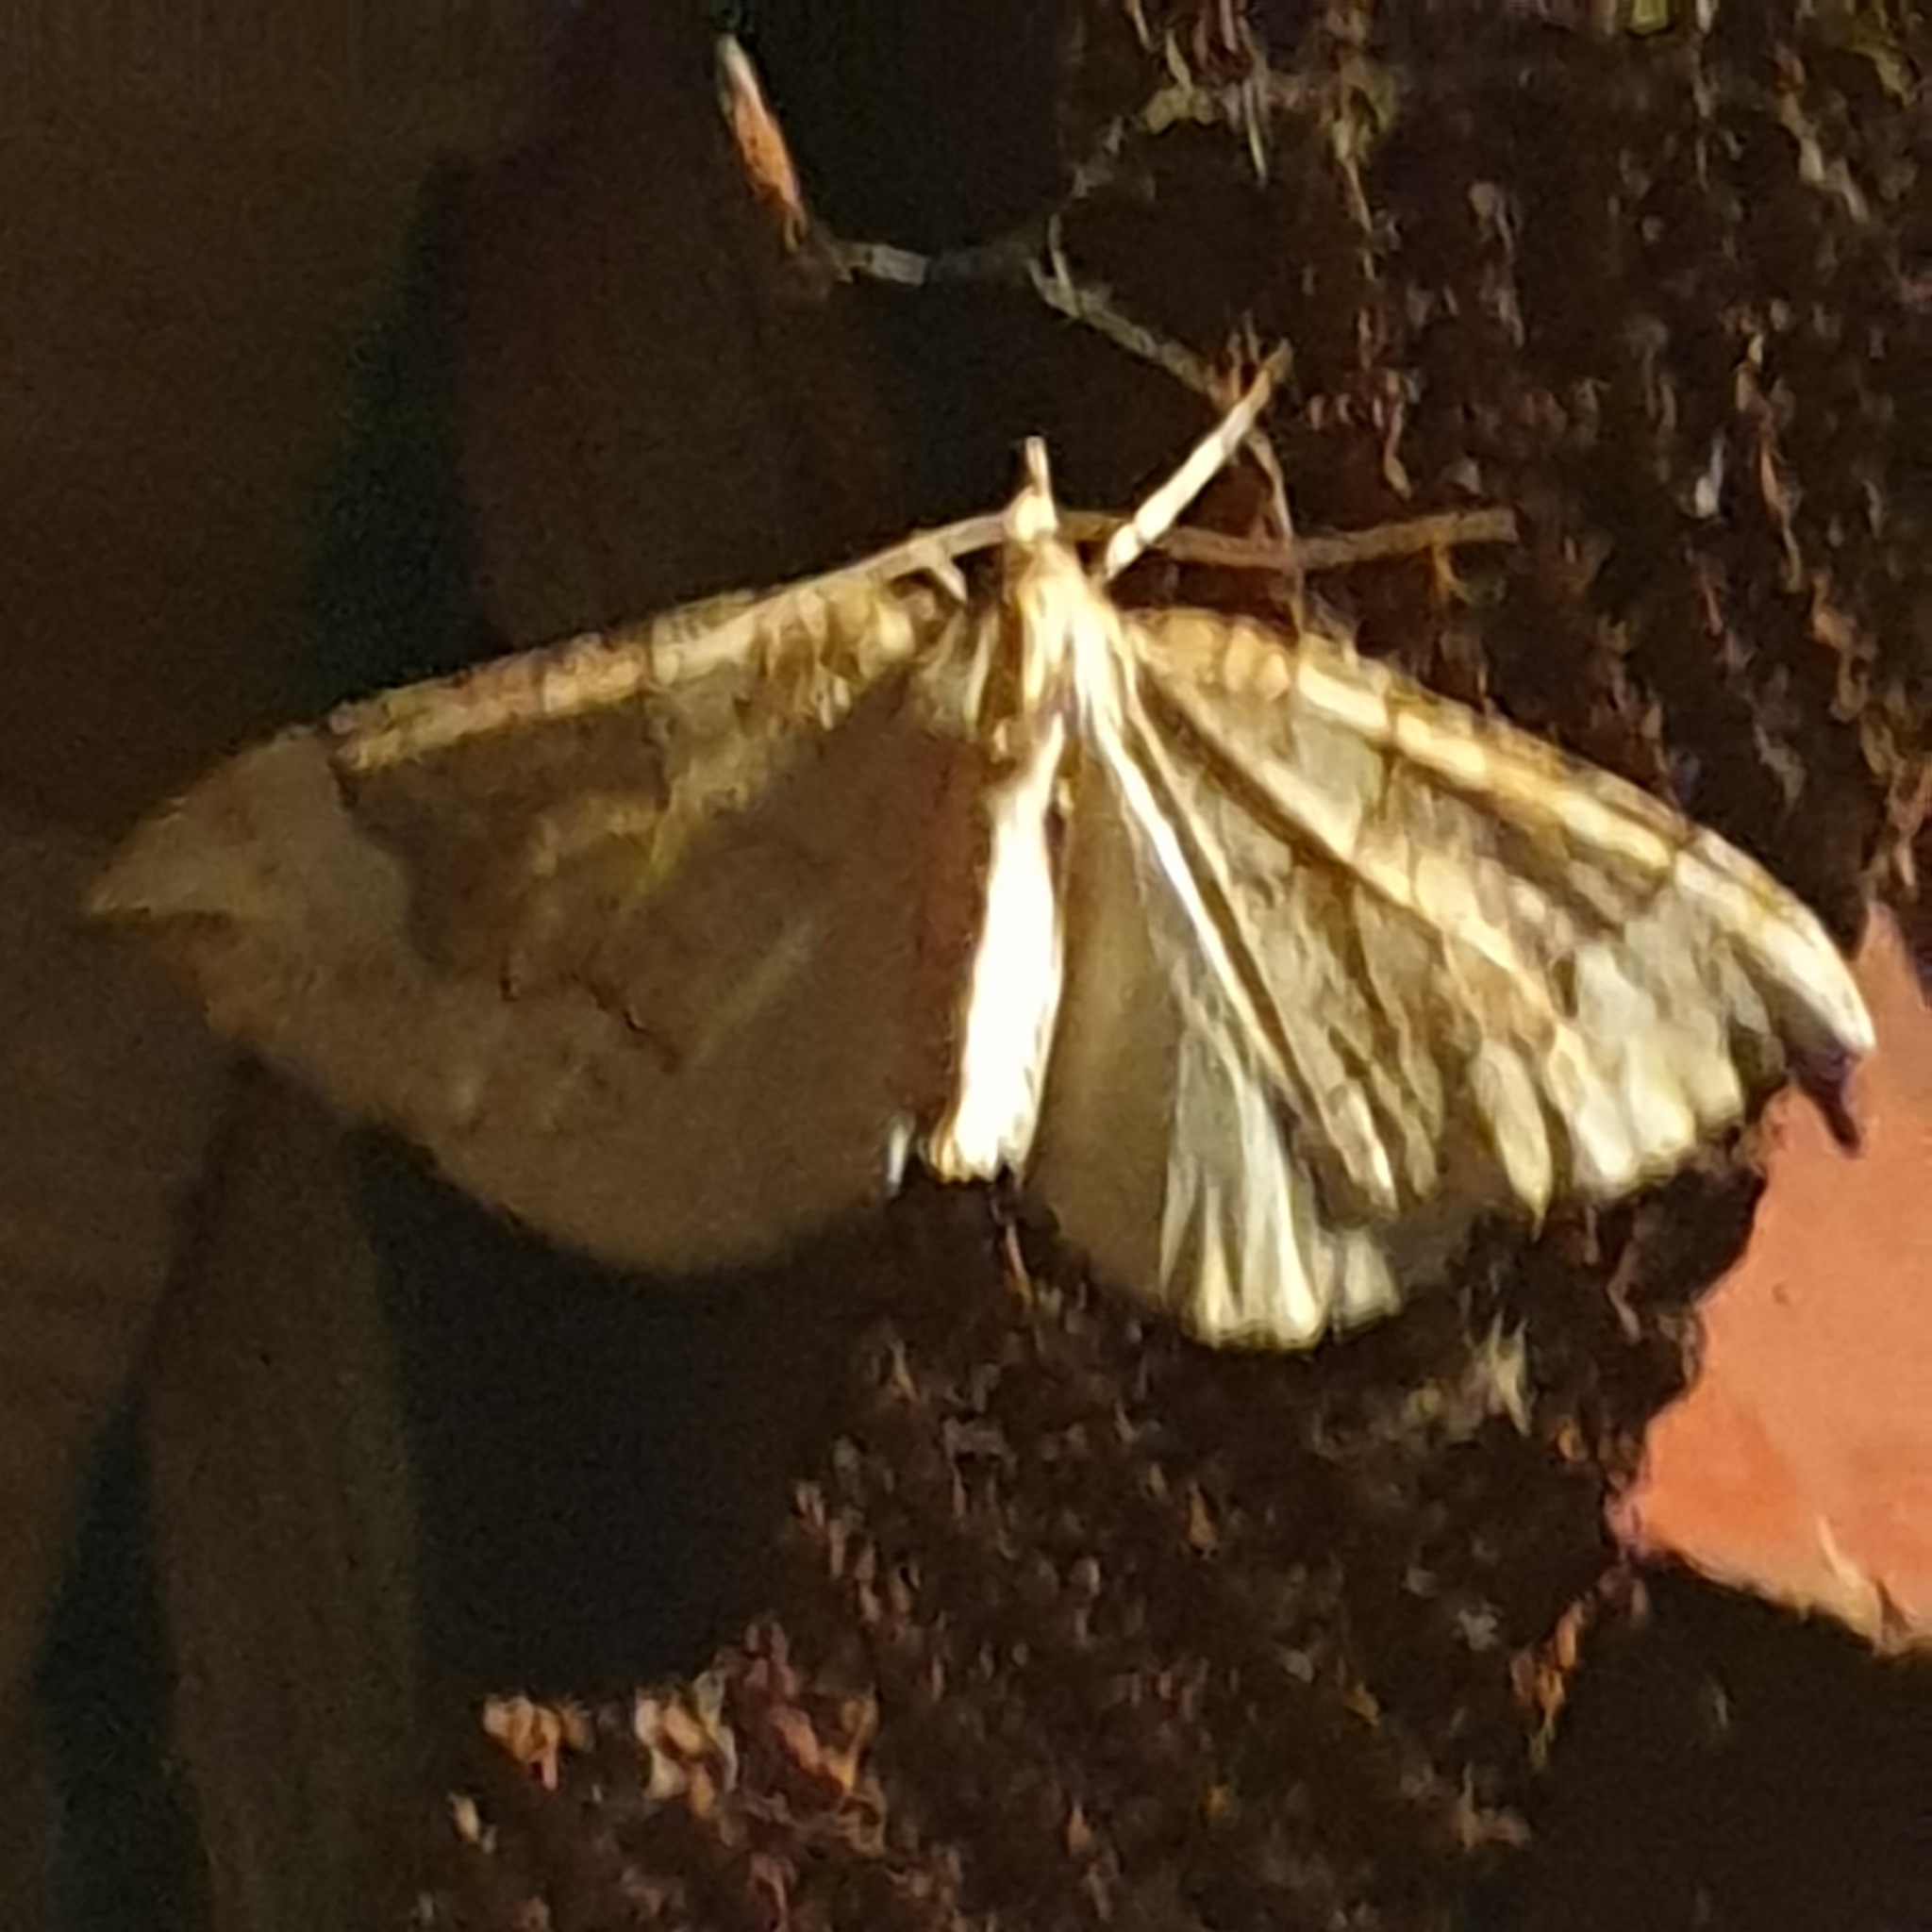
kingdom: Animalia
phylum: Arthropoda
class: Insecta
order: Lepidoptera
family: Geometridae
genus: Eulithis
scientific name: Eulithis populata
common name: Northern spinach
